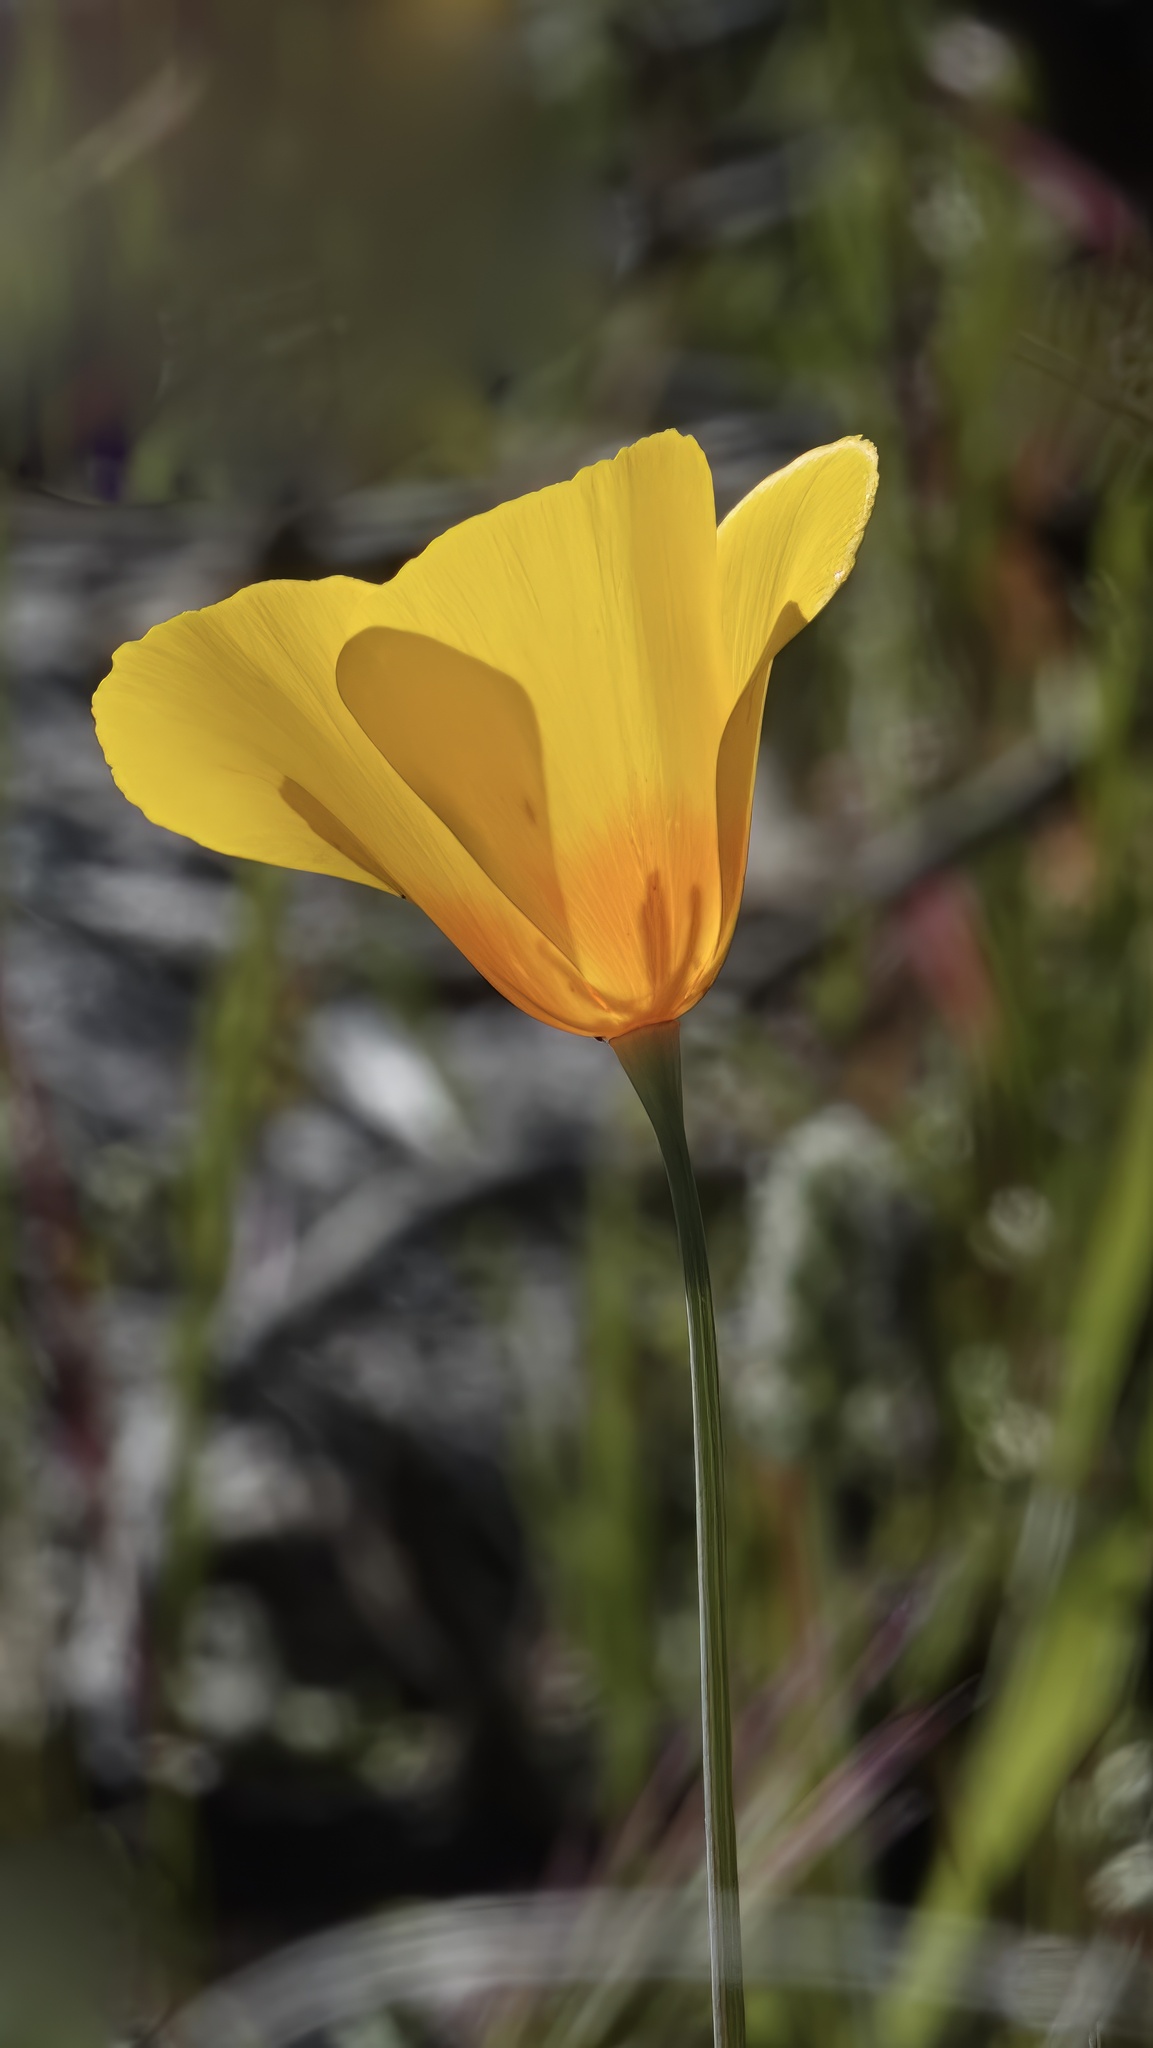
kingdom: Plantae
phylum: Tracheophyta
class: Magnoliopsida
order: Ranunculales
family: Papaveraceae
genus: Eschscholzia
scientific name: Eschscholzia californica
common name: California poppy
